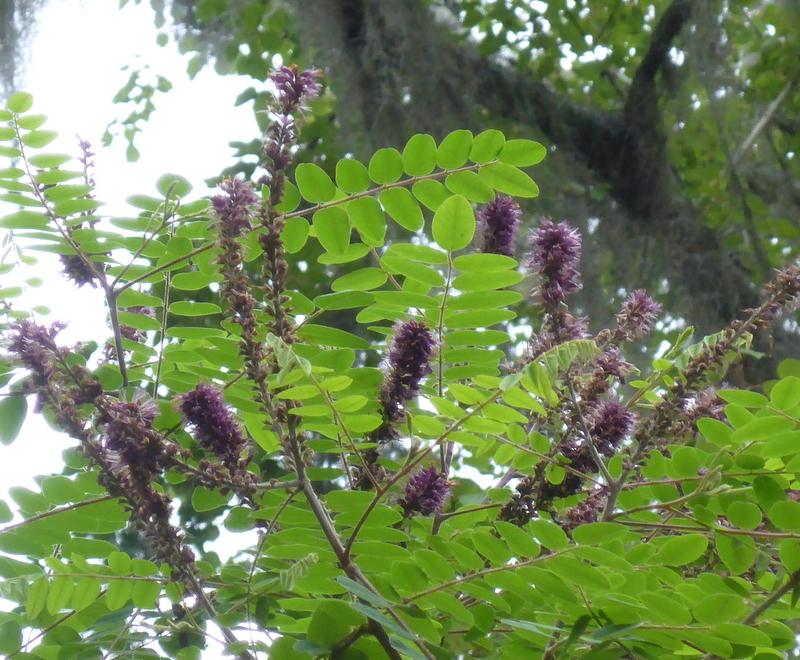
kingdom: Plantae
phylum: Tracheophyta
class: Magnoliopsida
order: Fabales
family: Fabaceae
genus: Amorpha
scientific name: Amorpha fruticosa
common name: False indigo
